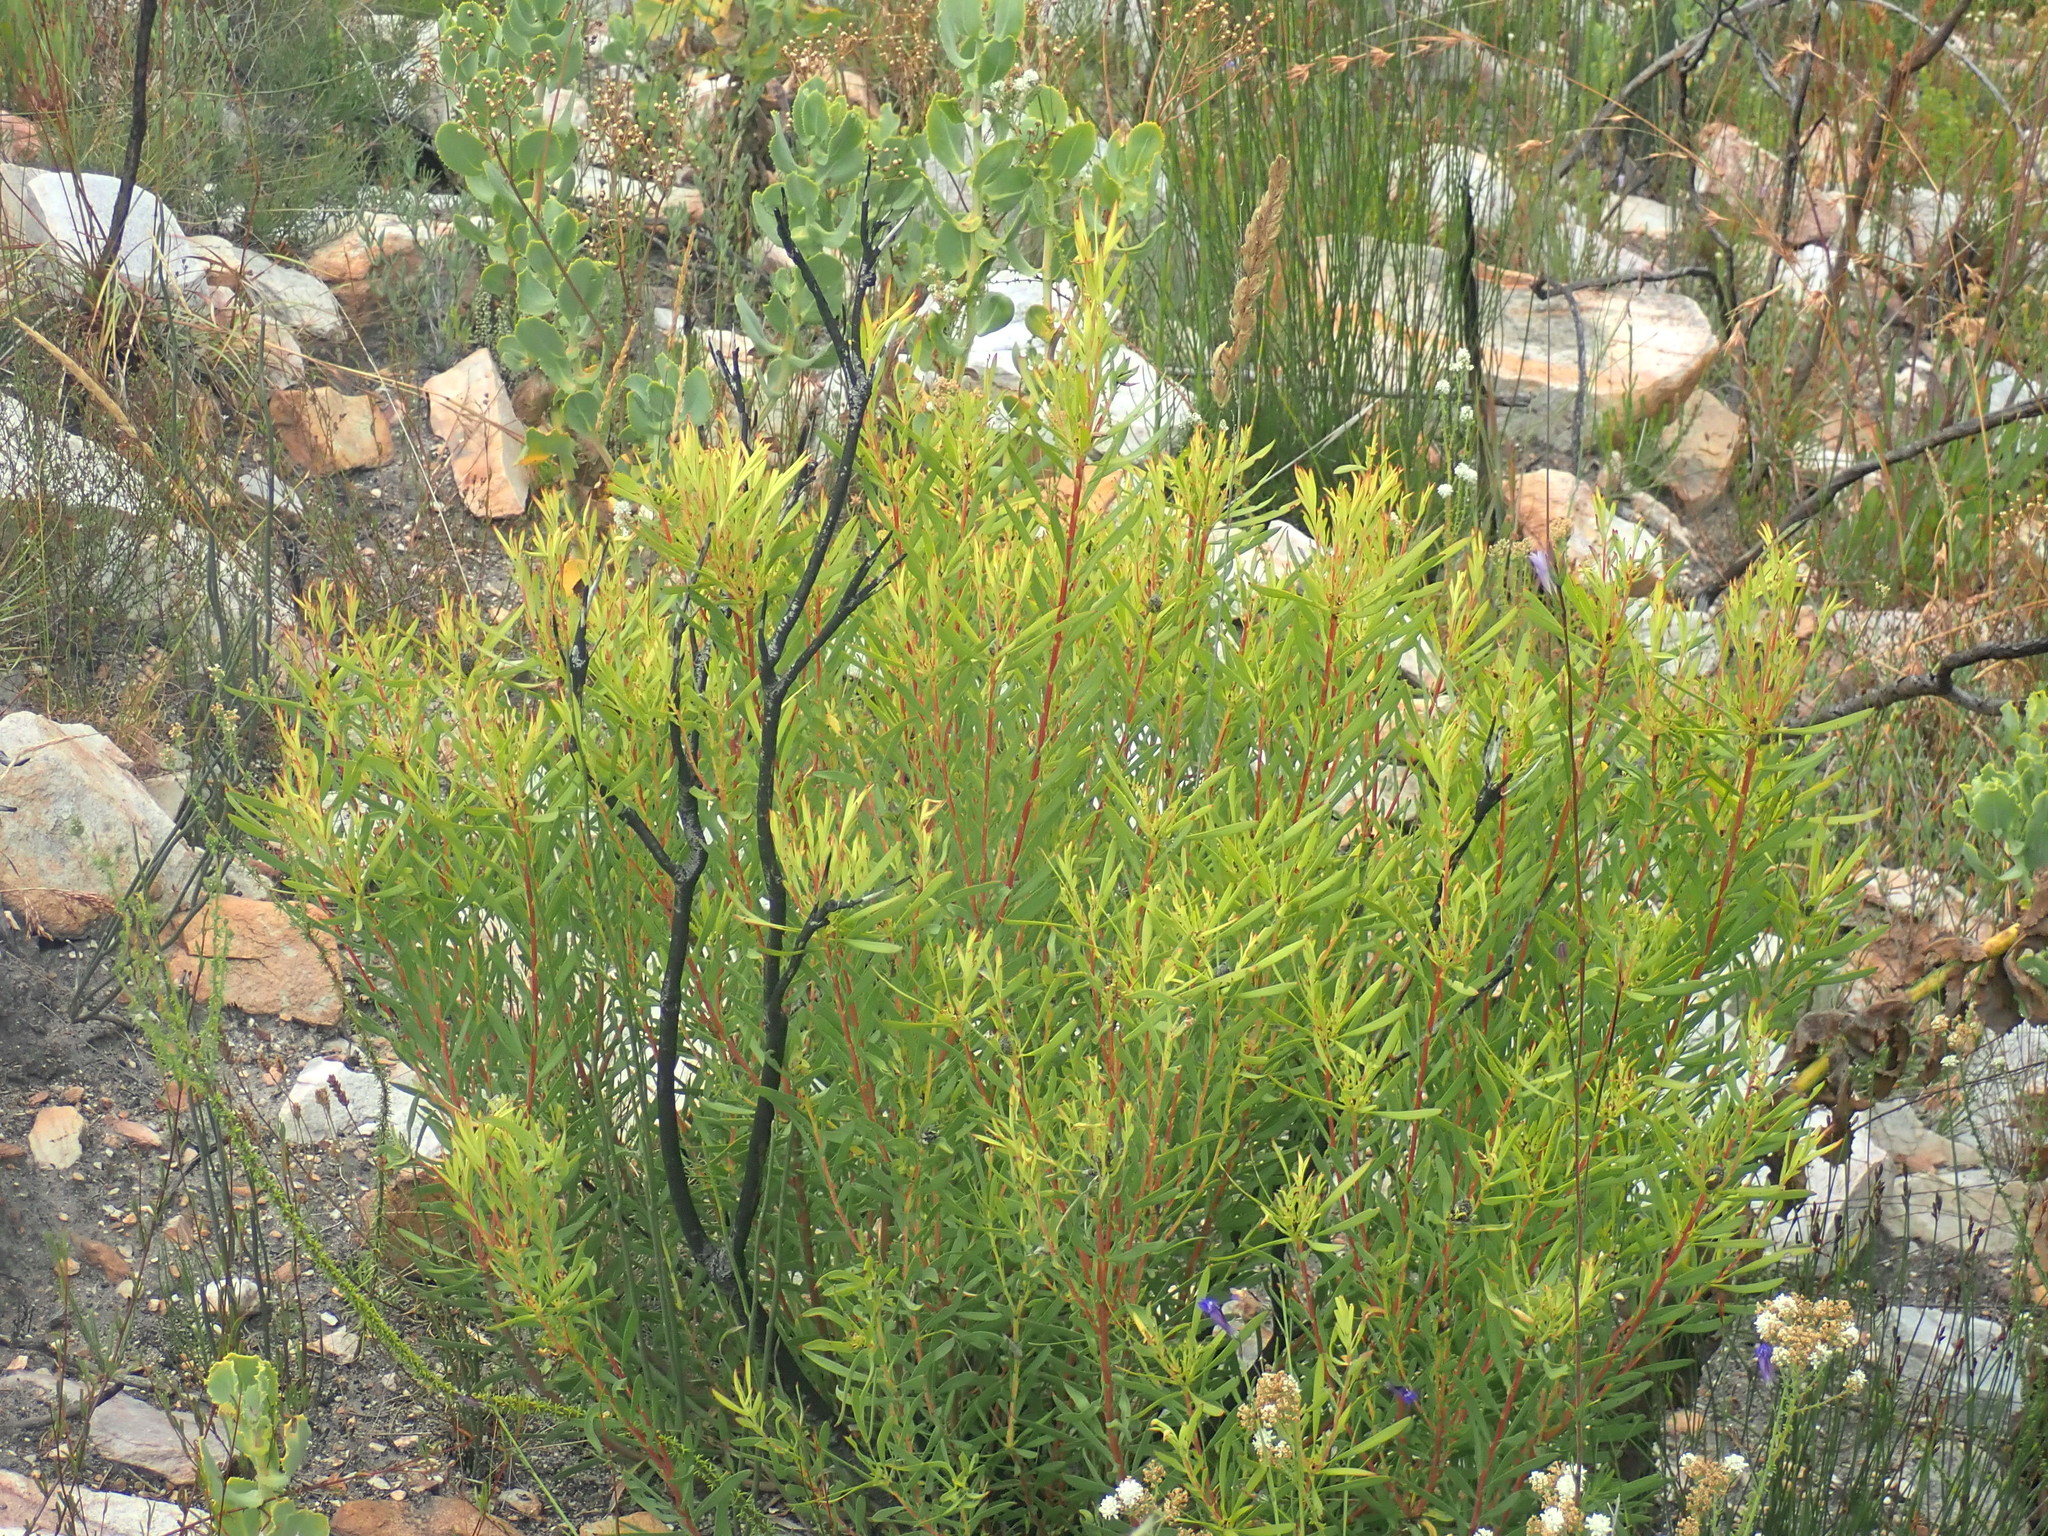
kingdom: Plantae
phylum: Tracheophyta
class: Magnoliopsida
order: Proteales
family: Proteaceae
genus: Leucadendron
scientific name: Leucadendron salignum
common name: Common sunshine conebush
